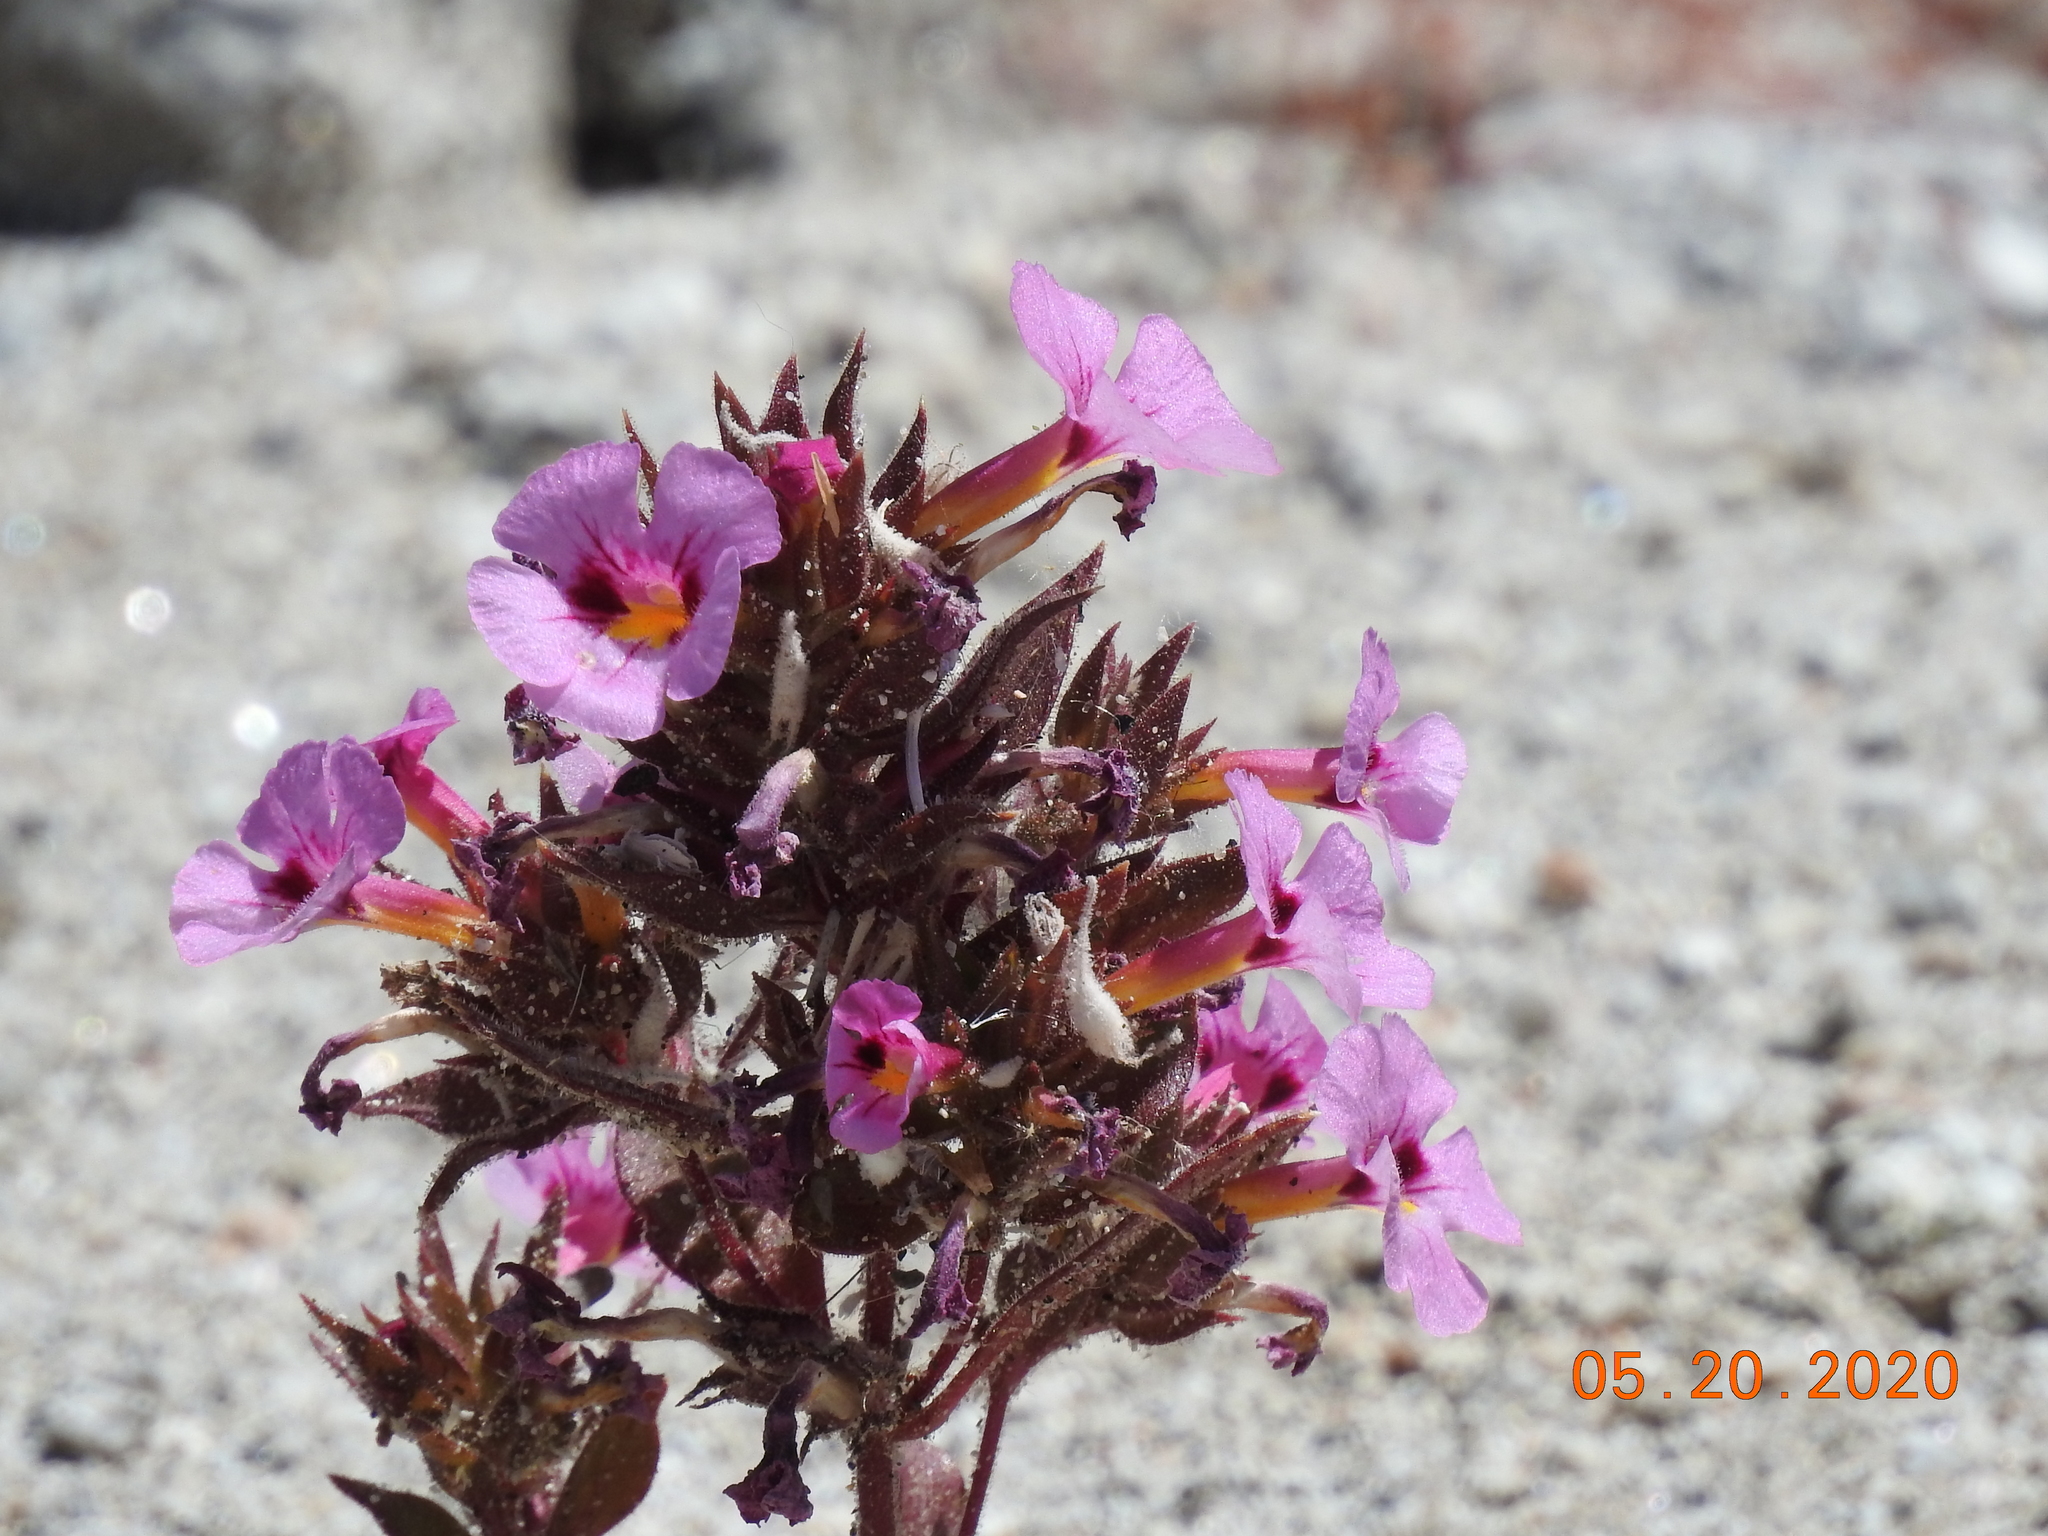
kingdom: Plantae
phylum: Tracheophyta
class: Magnoliopsida
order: Lamiales
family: Phrymaceae
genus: Diplacus
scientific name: Diplacus bigelovii
